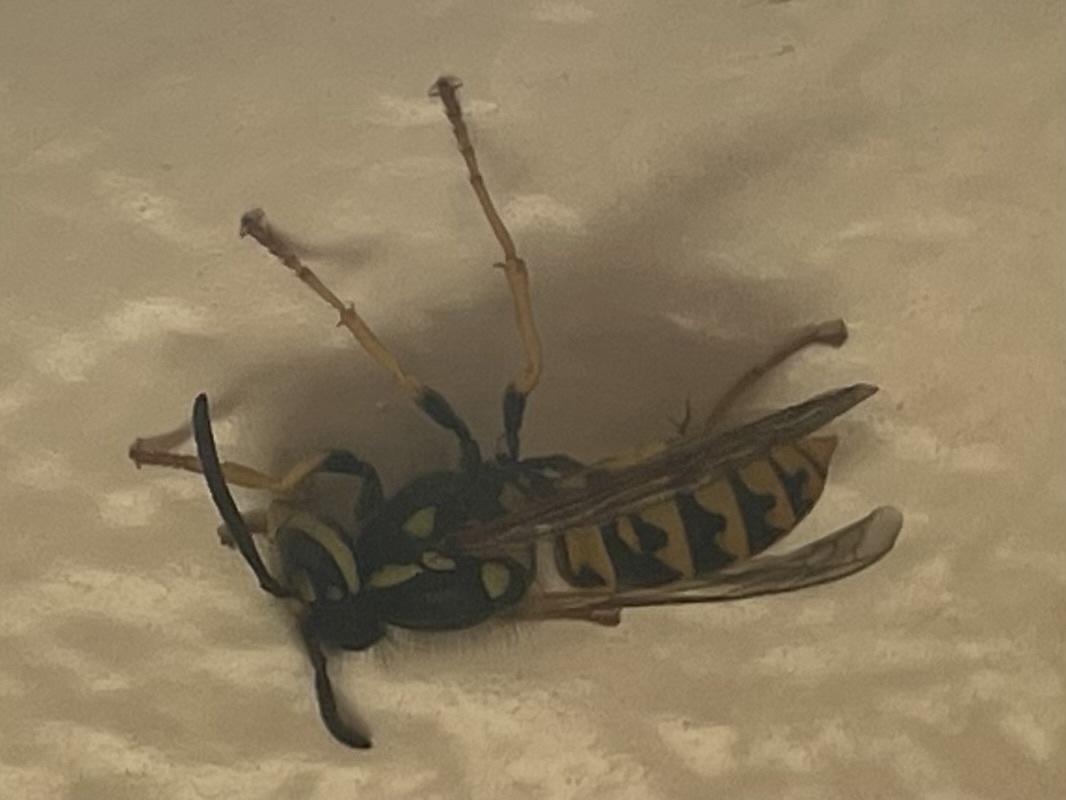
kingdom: Animalia
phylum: Arthropoda
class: Insecta
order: Hymenoptera
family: Vespidae
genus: Vespula
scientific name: Vespula germanica
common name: German wasp
